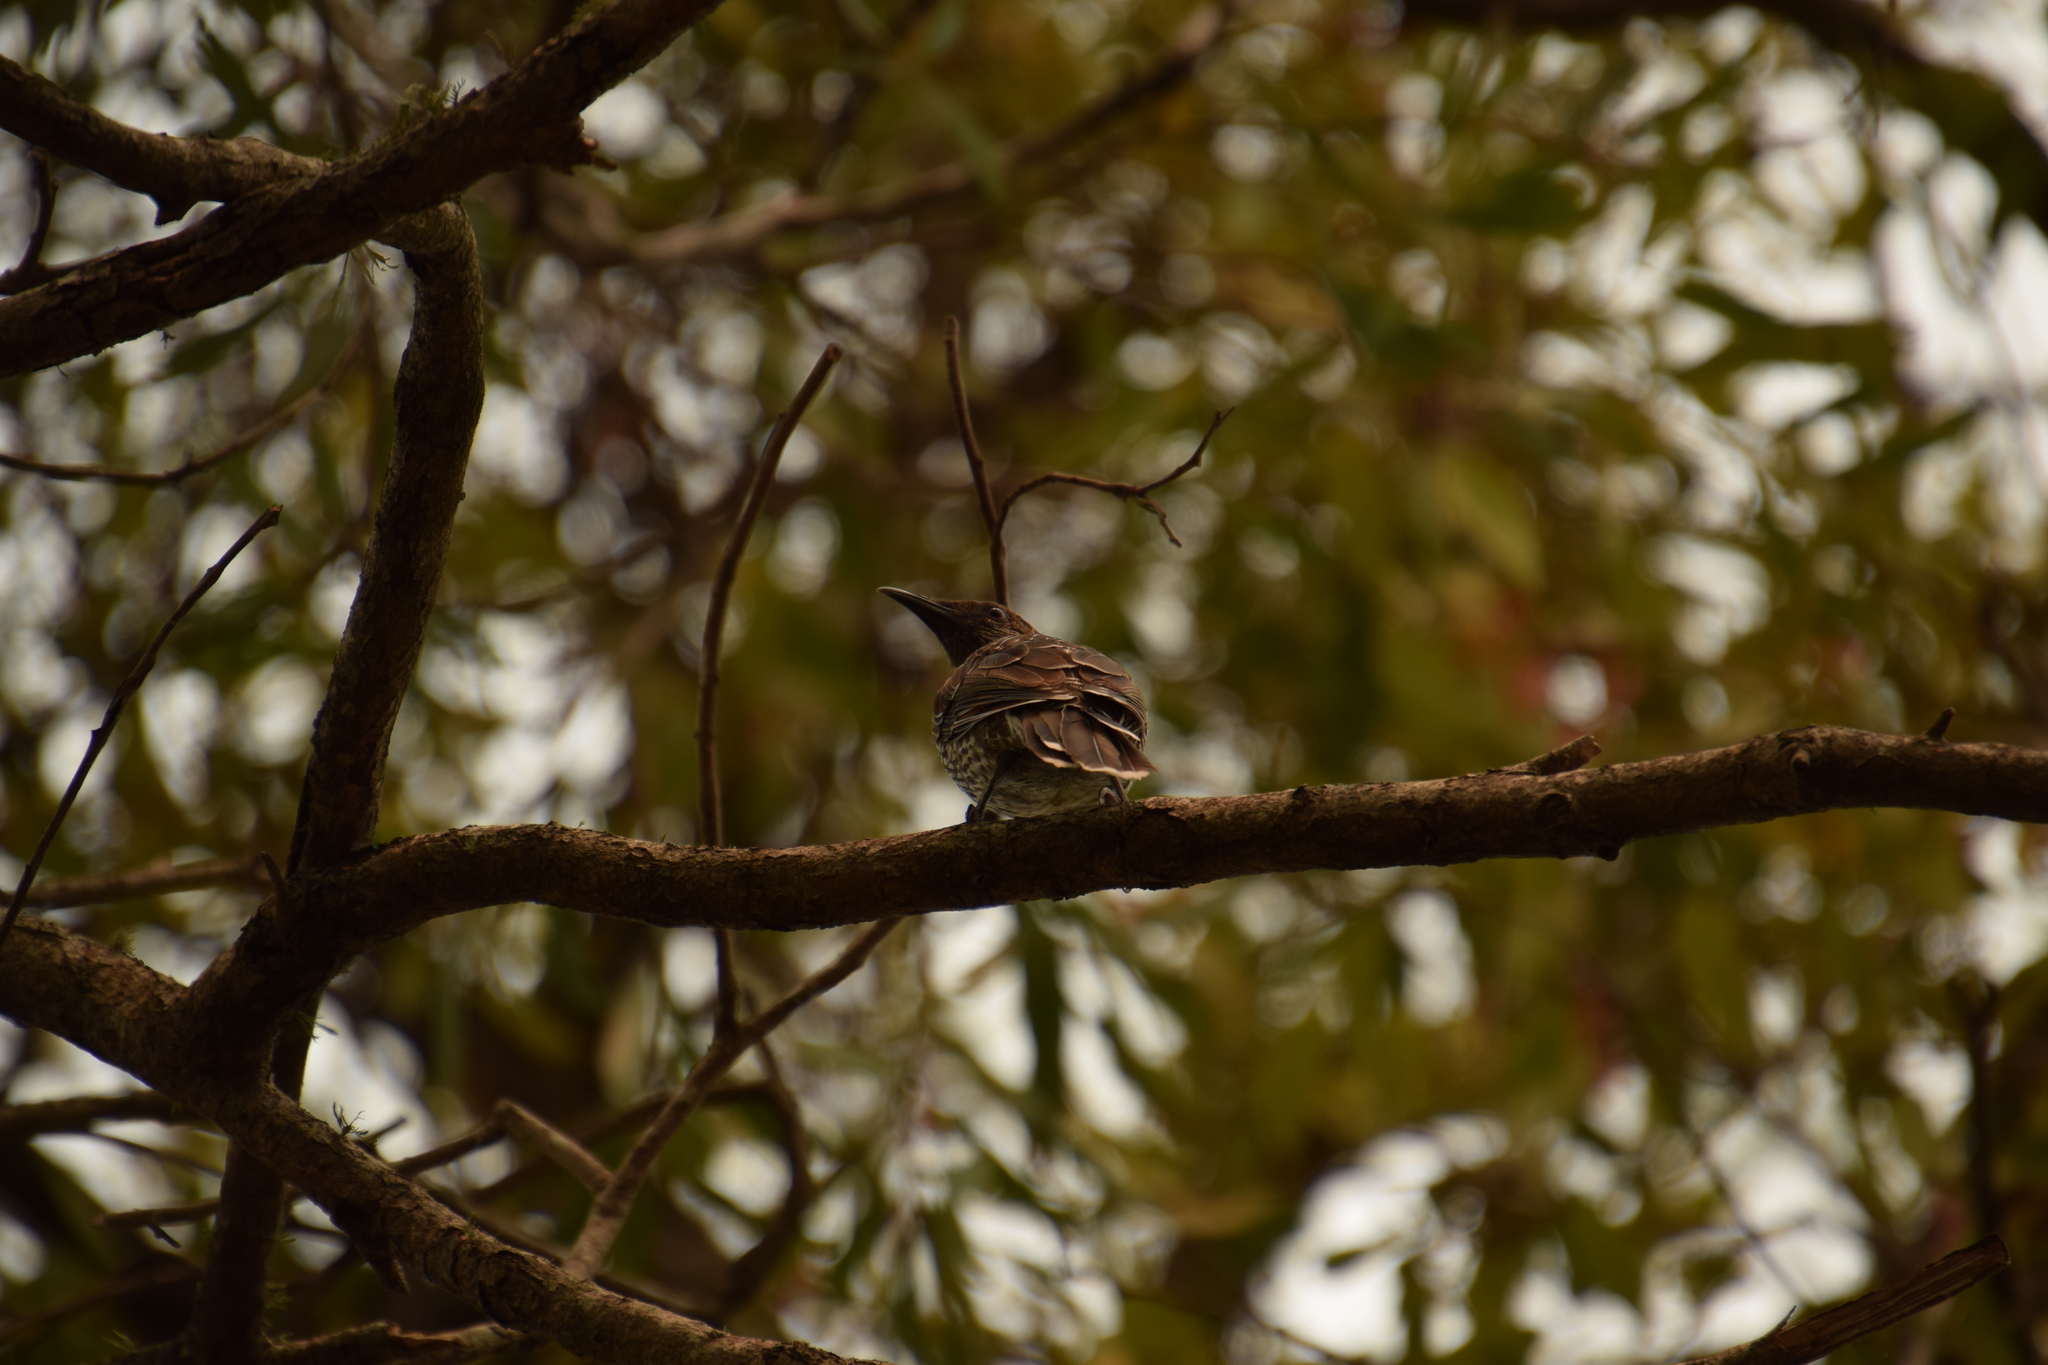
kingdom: Animalia
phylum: Chordata
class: Aves
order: Passeriformes
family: Meliphagidae
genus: Anthochaera
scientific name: Anthochaera chrysoptera
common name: Little wattlebird
